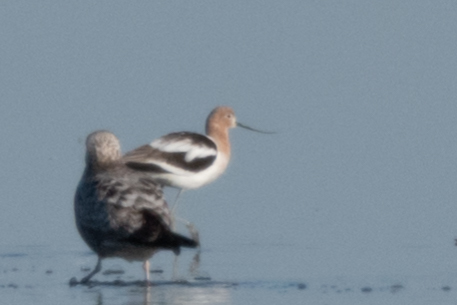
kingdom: Animalia
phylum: Chordata
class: Aves
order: Charadriiformes
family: Recurvirostridae
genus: Recurvirostra
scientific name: Recurvirostra americana
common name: American avocet
